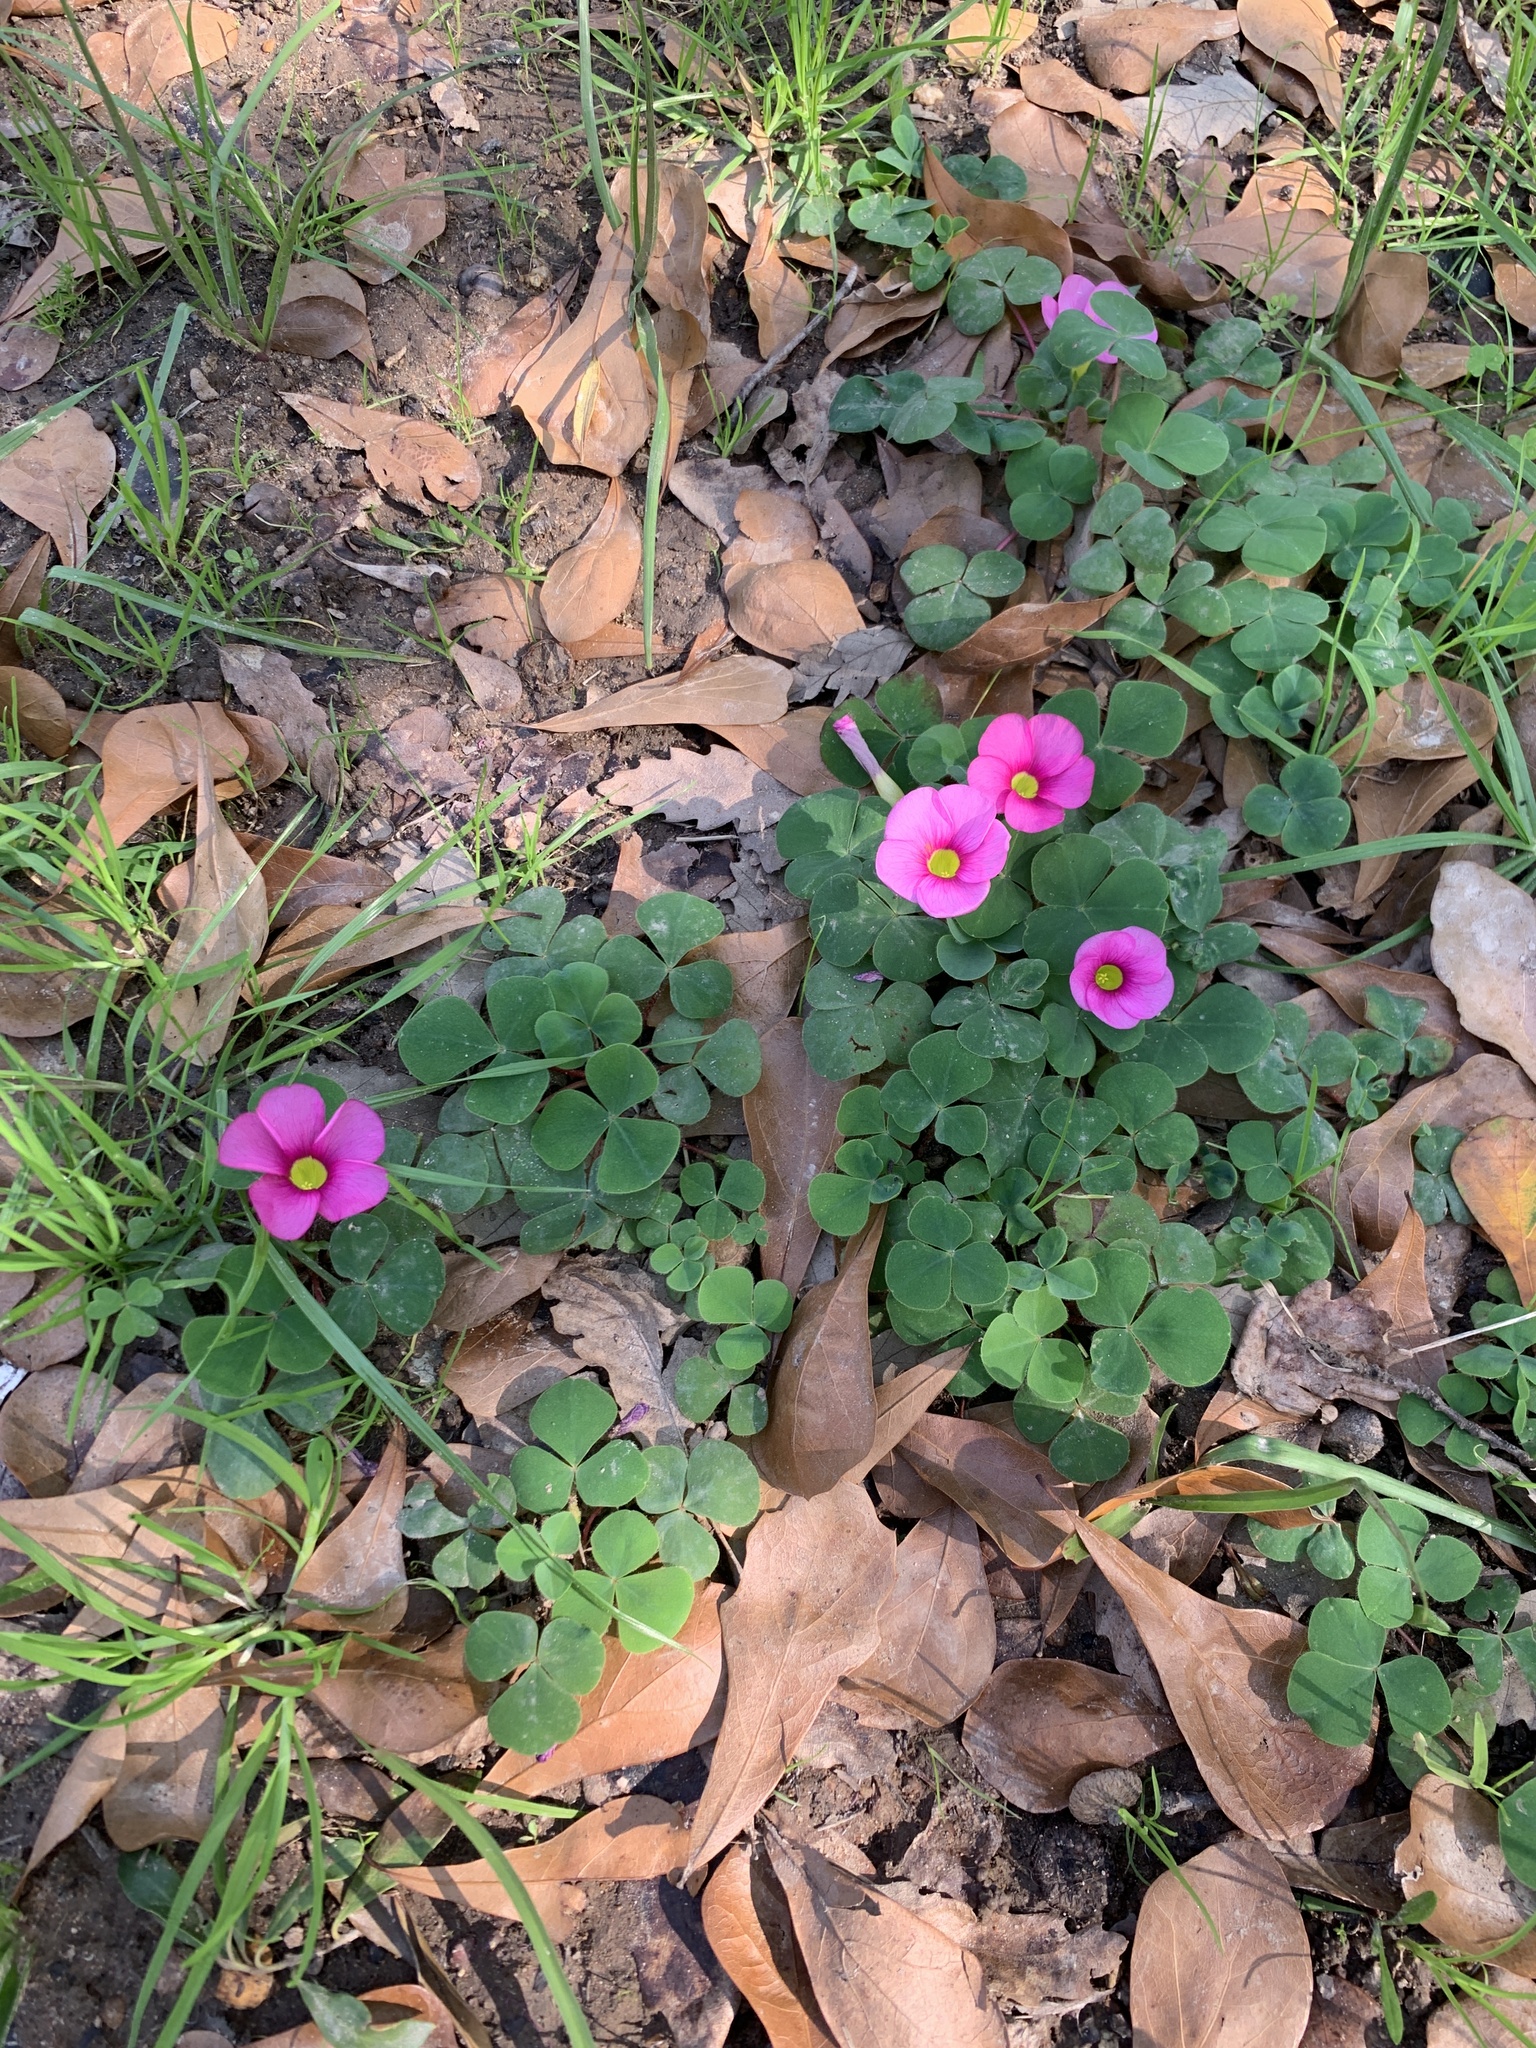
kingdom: Plantae
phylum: Tracheophyta
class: Magnoliopsida
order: Oxalidales
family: Oxalidaceae
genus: Oxalis
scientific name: Oxalis purpurea
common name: Purple woodsorrel
